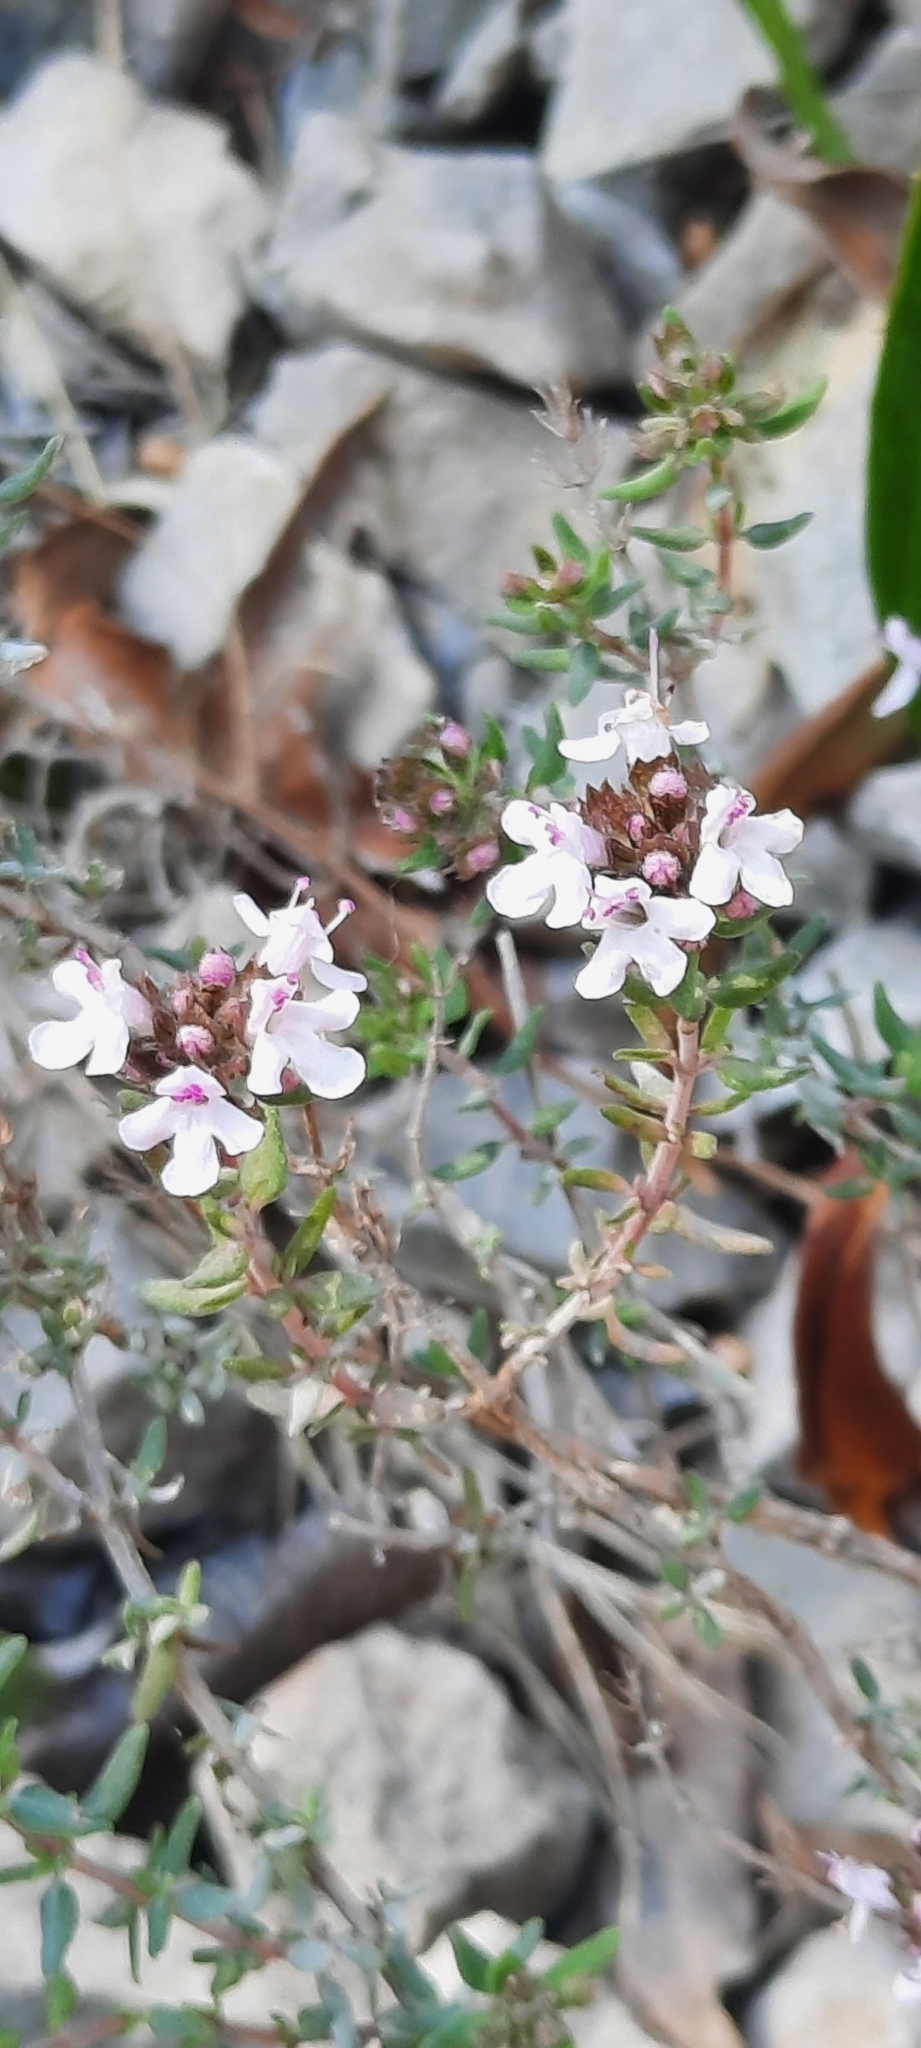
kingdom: Plantae
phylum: Tracheophyta
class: Magnoliopsida
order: Lamiales
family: Lamiaceae
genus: Thymus
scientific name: Thymus vulgaris
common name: Garden thyme
